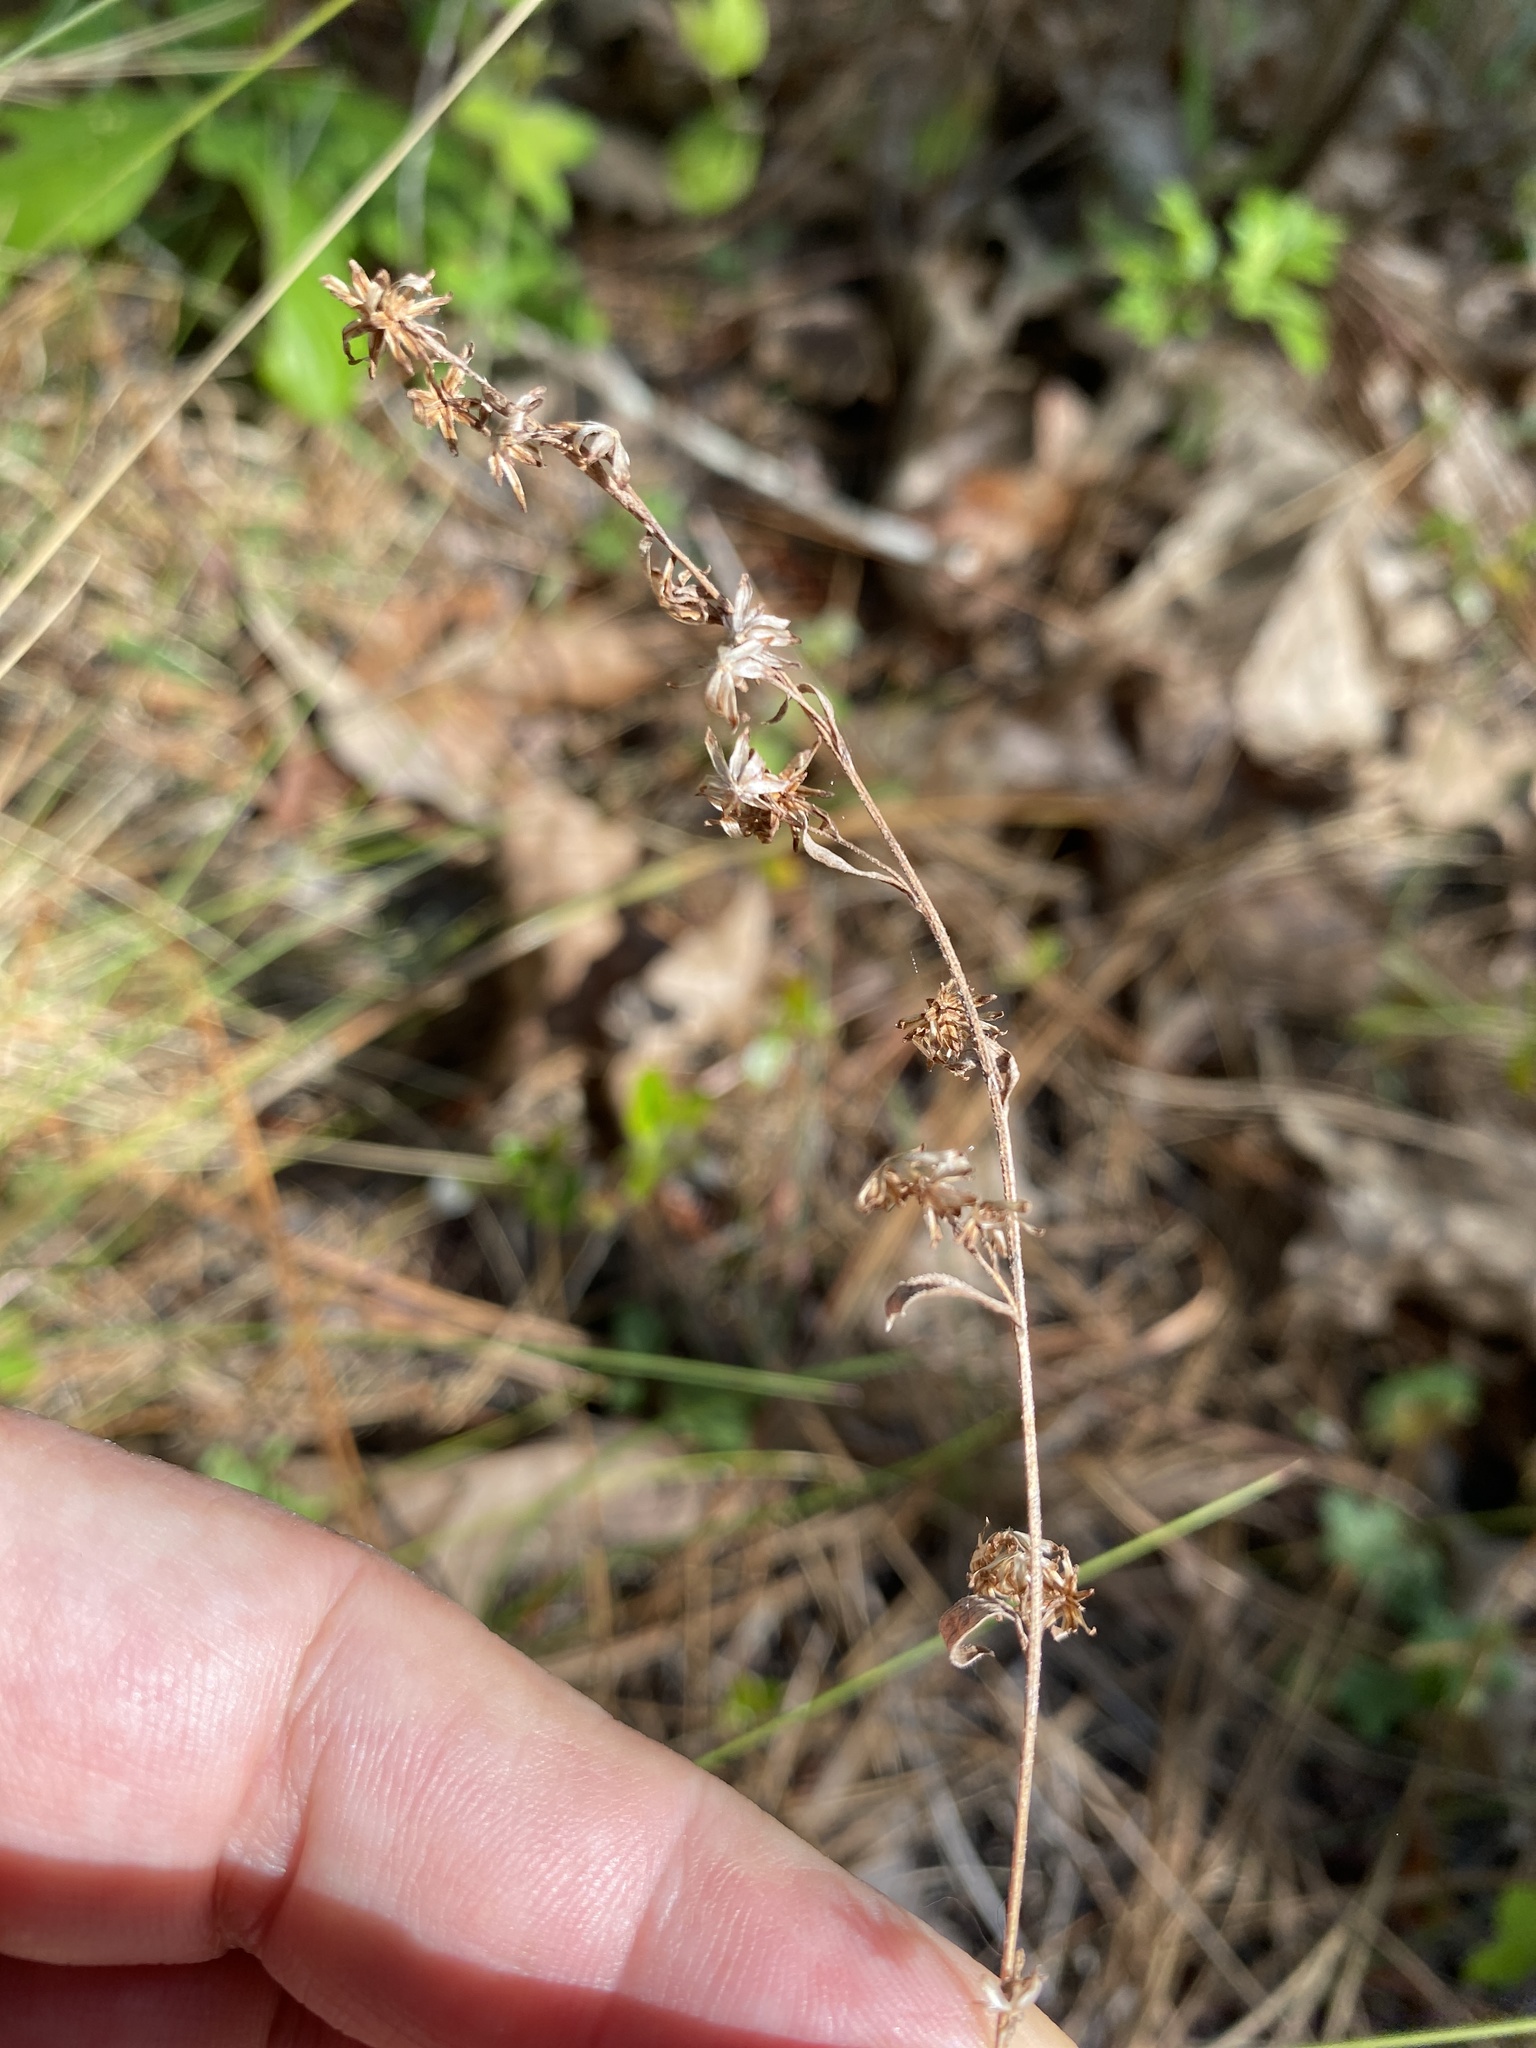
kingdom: Plantae
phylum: Tracheophyta
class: Magnoliopsida
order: Asterales
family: Asteraceae
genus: Solidago
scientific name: Solidago vaseyi
